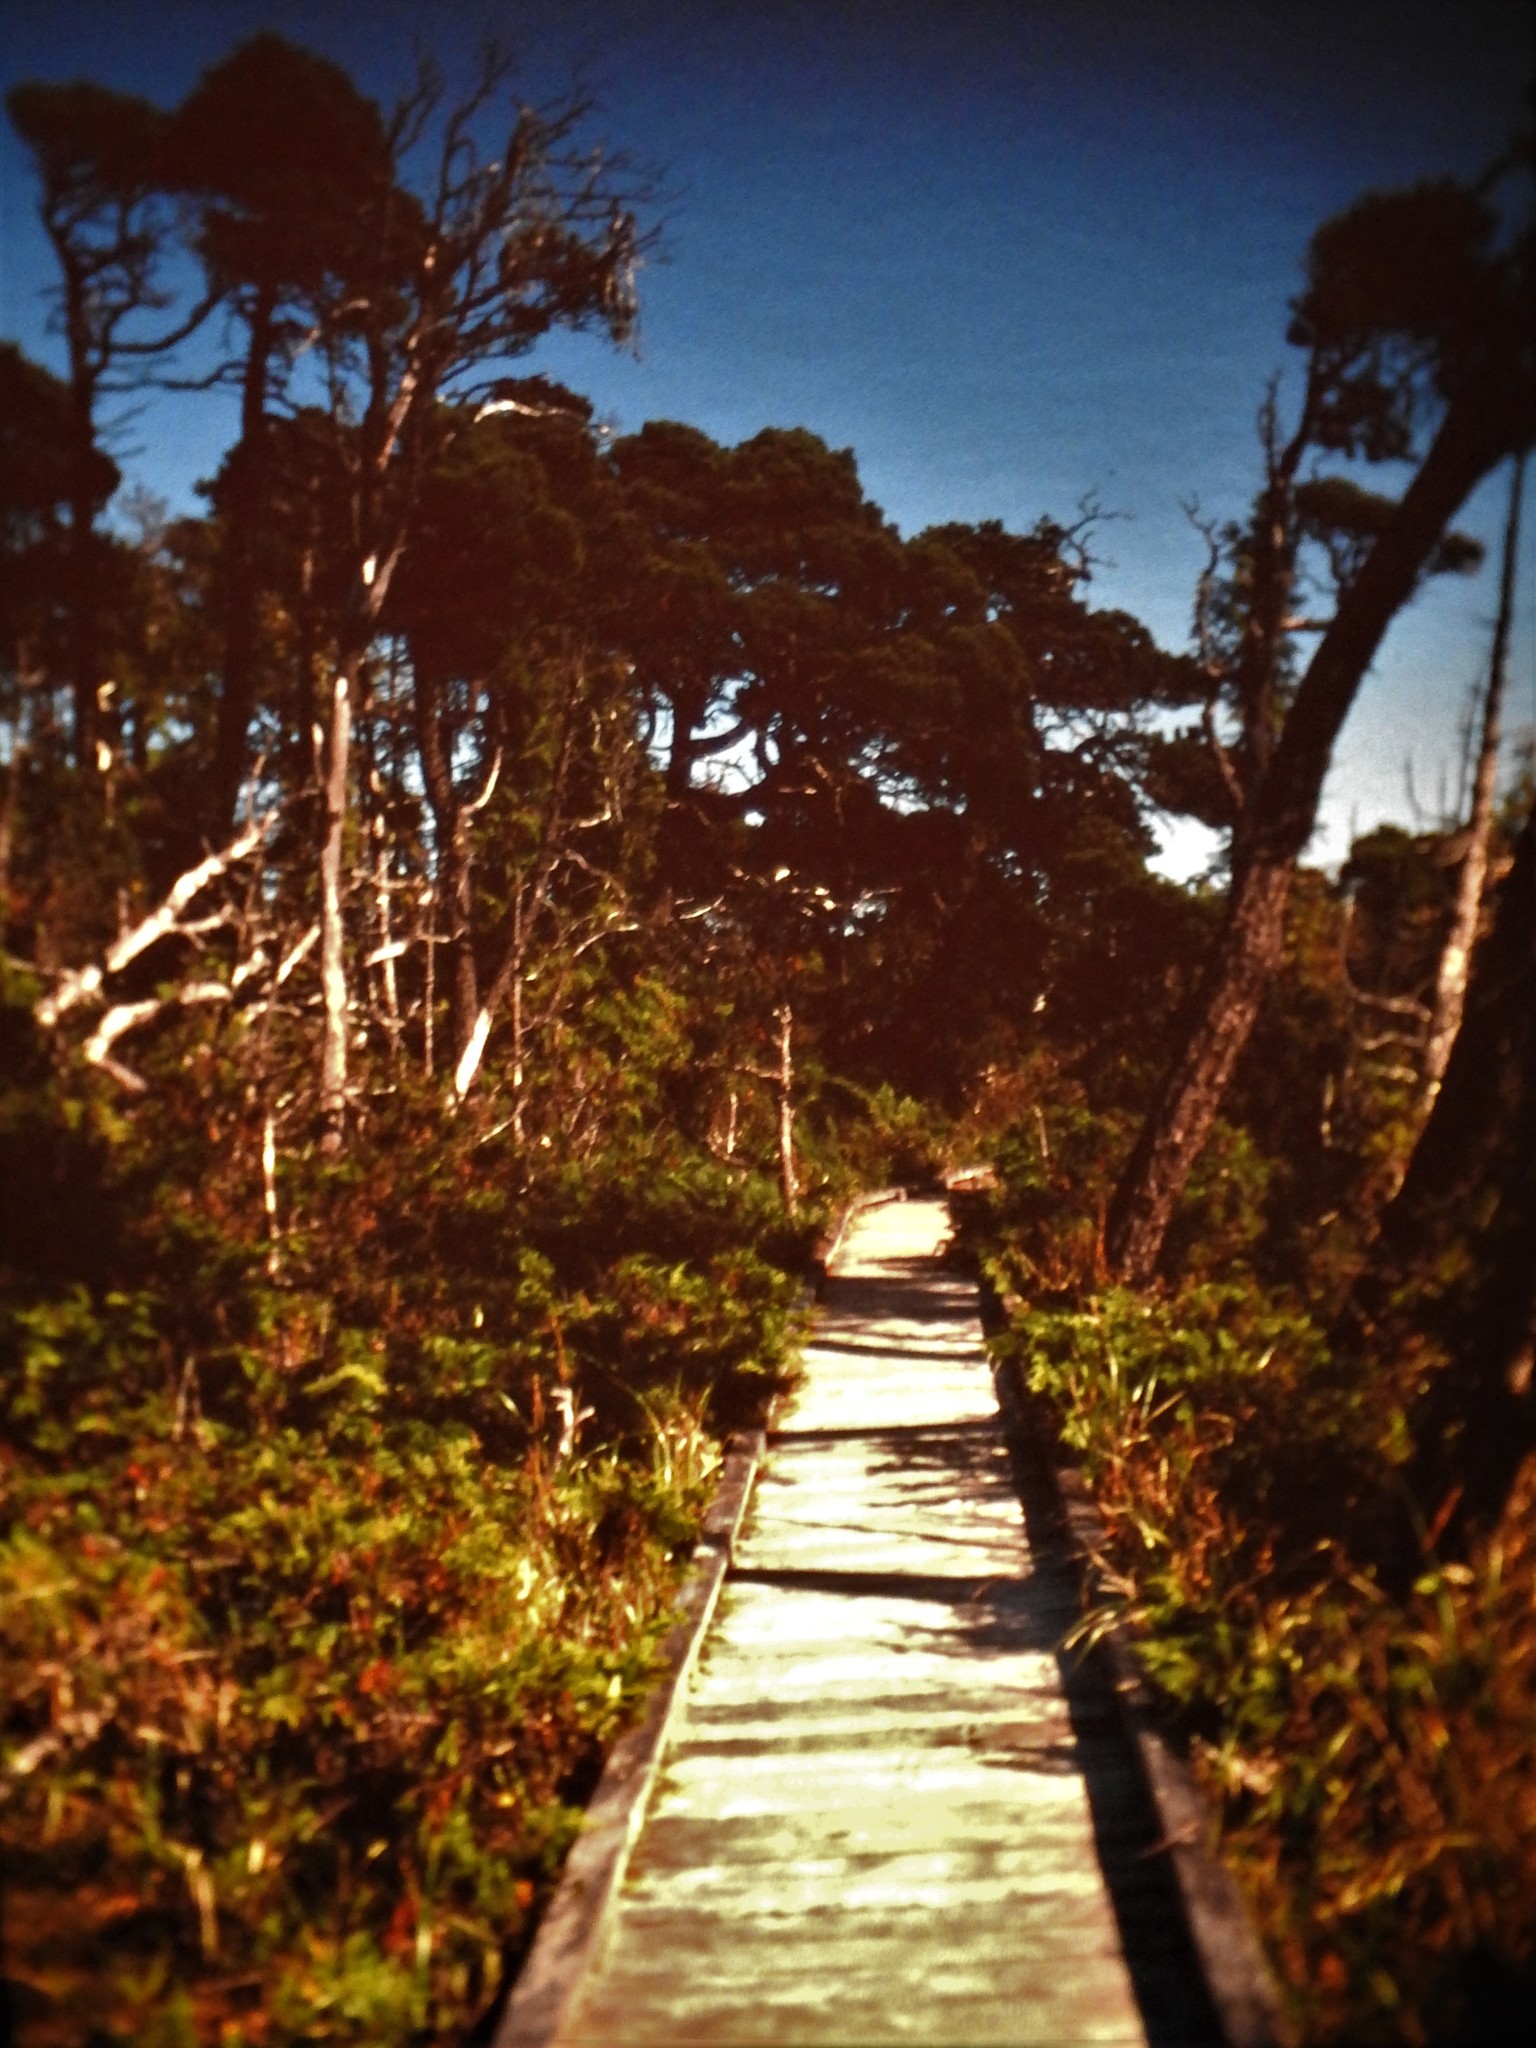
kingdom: Plantae
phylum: Tracheophyta
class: Pinopsida
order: Pinales
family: Pinaceae
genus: Pinus
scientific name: Pinus contorta
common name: Lodgepole pine
